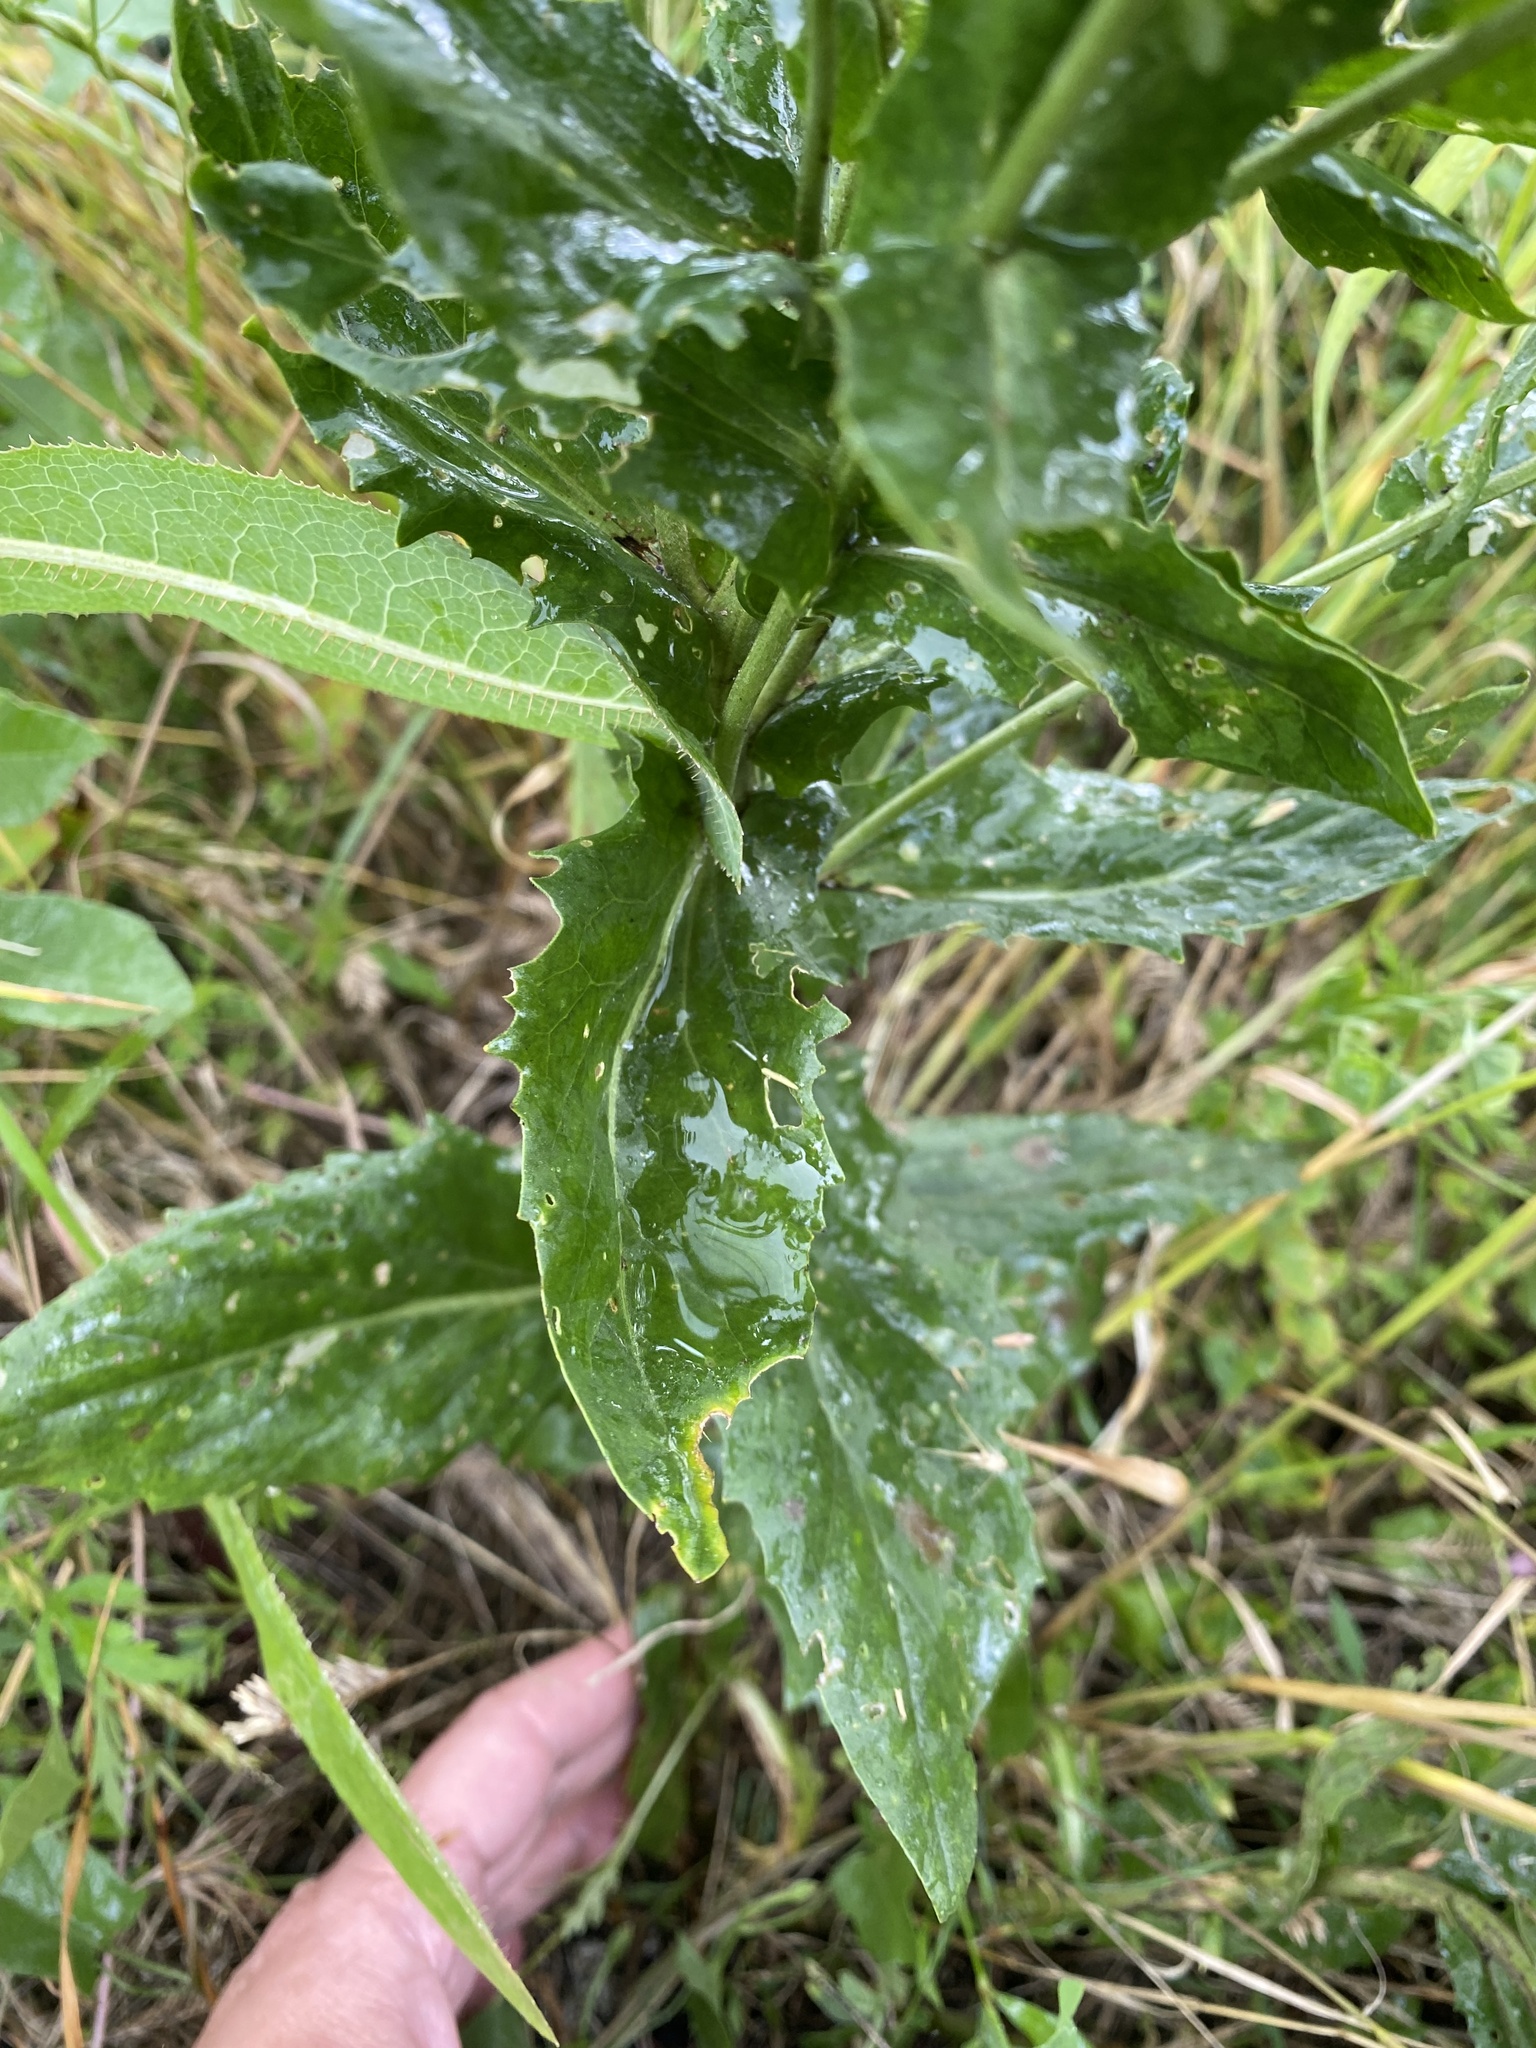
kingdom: Plantae
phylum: Tracheophyta
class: Magnoliopsida
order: Brassicales
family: Brassicaceae
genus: Lepidium
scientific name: Lepidium draba
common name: Hoary cress
